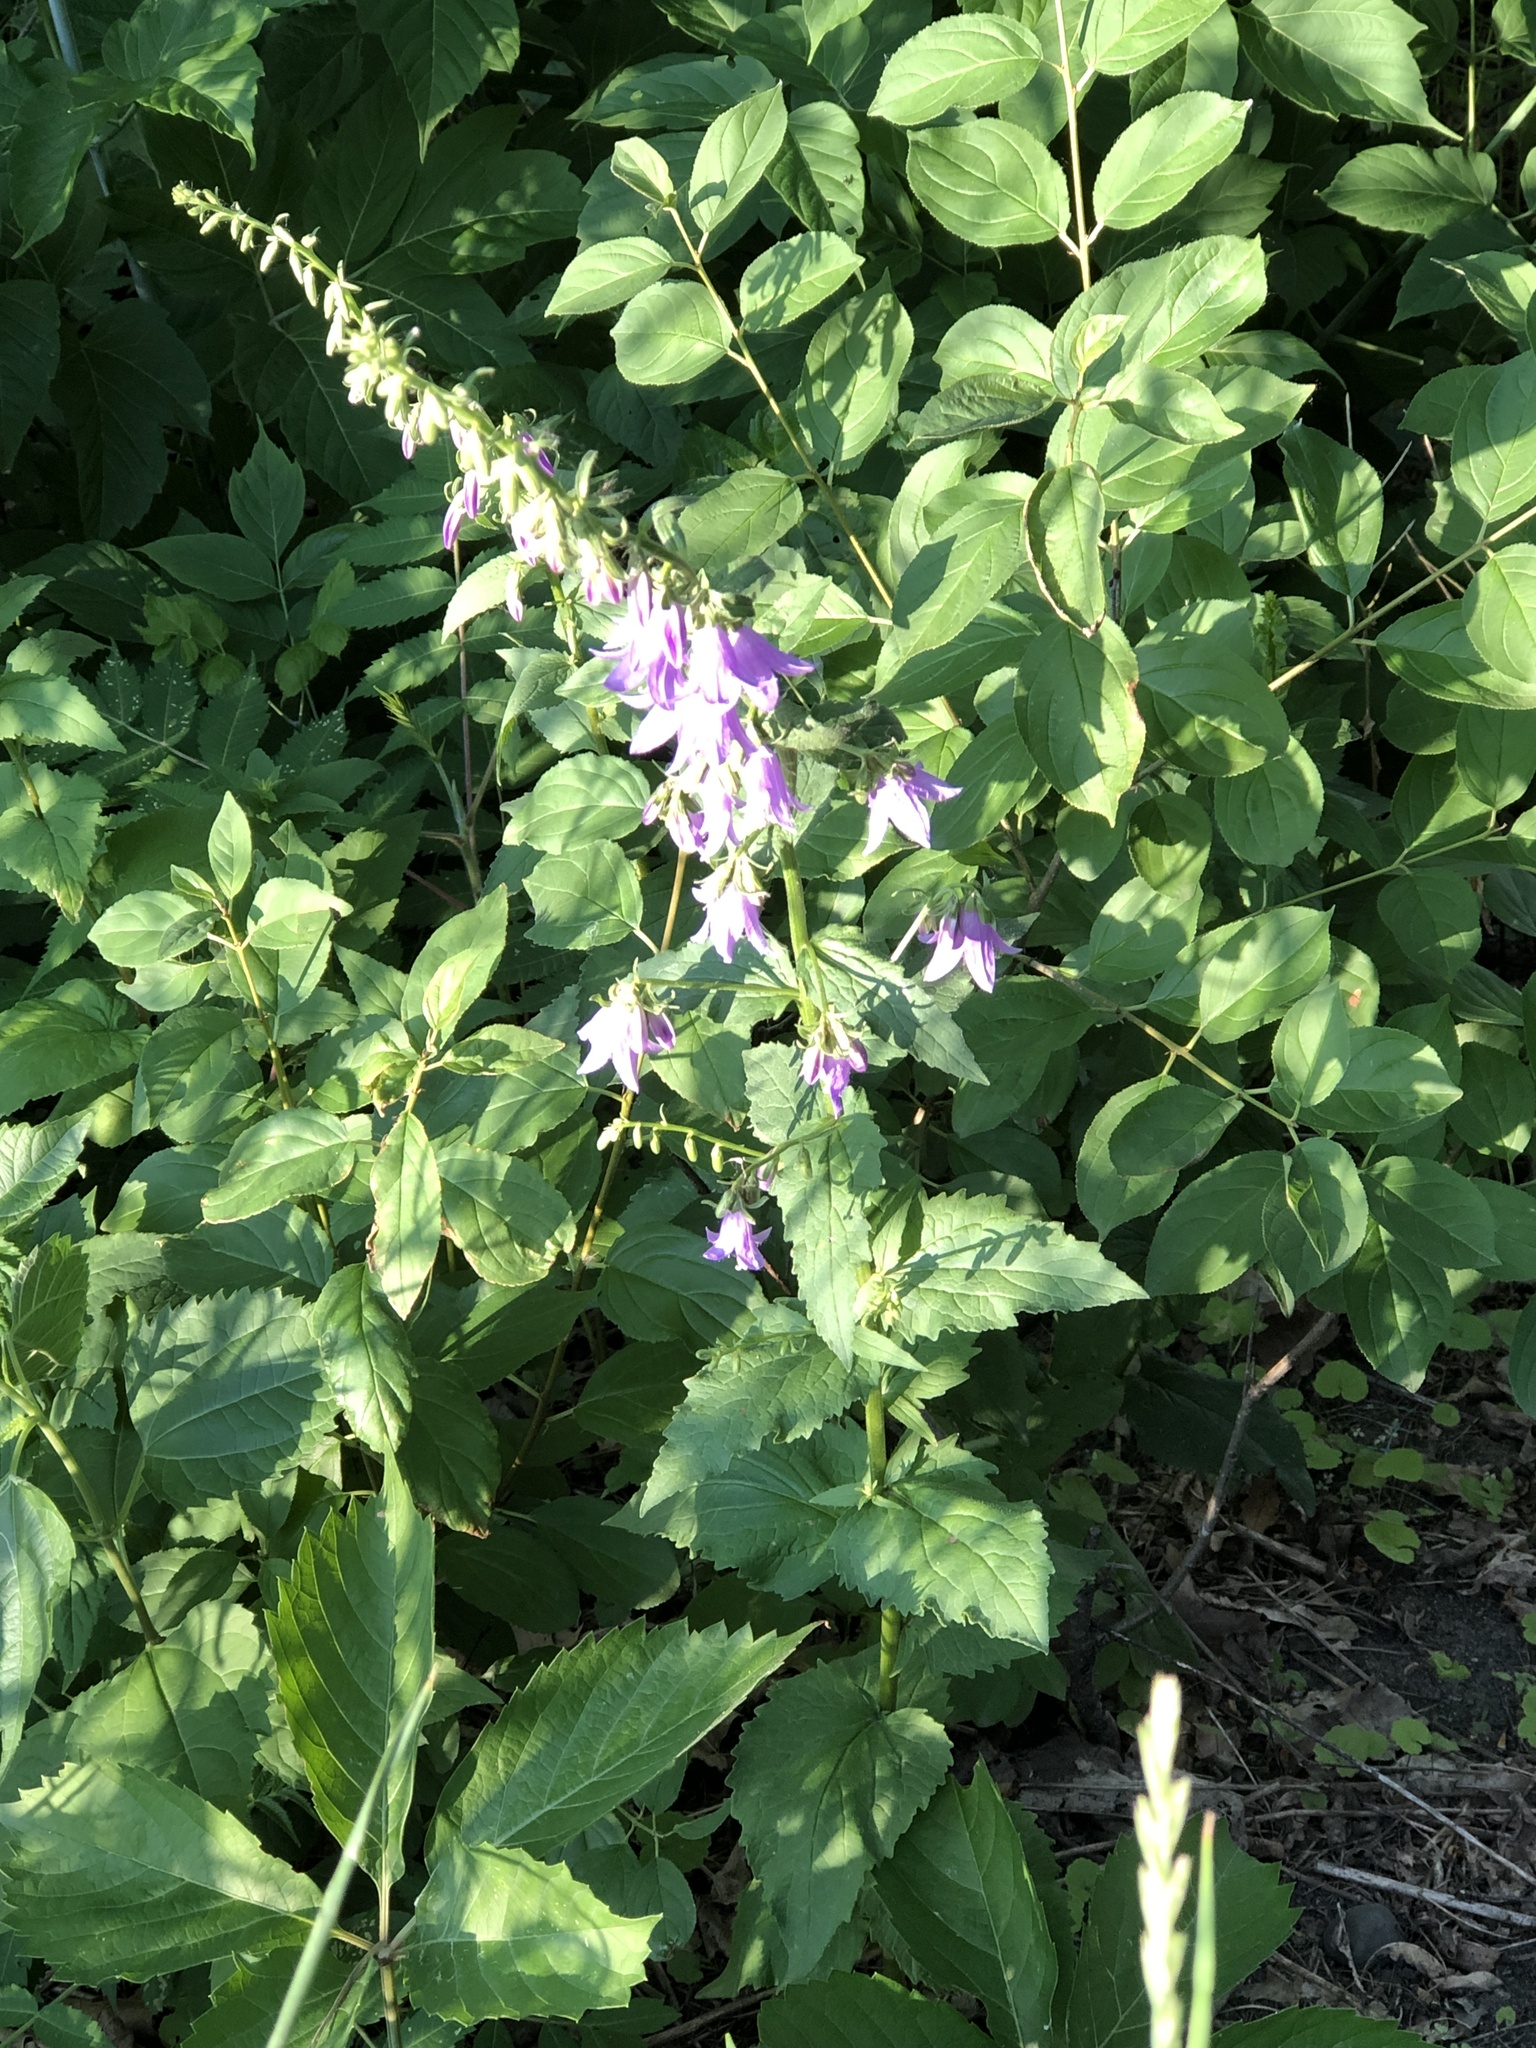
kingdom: Plantae
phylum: Tracheophyta
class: Magnoliopsida
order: Asterales
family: Campanulaceae
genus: Campanula
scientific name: Campanula rapunculoides
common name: Creeping bellflower
